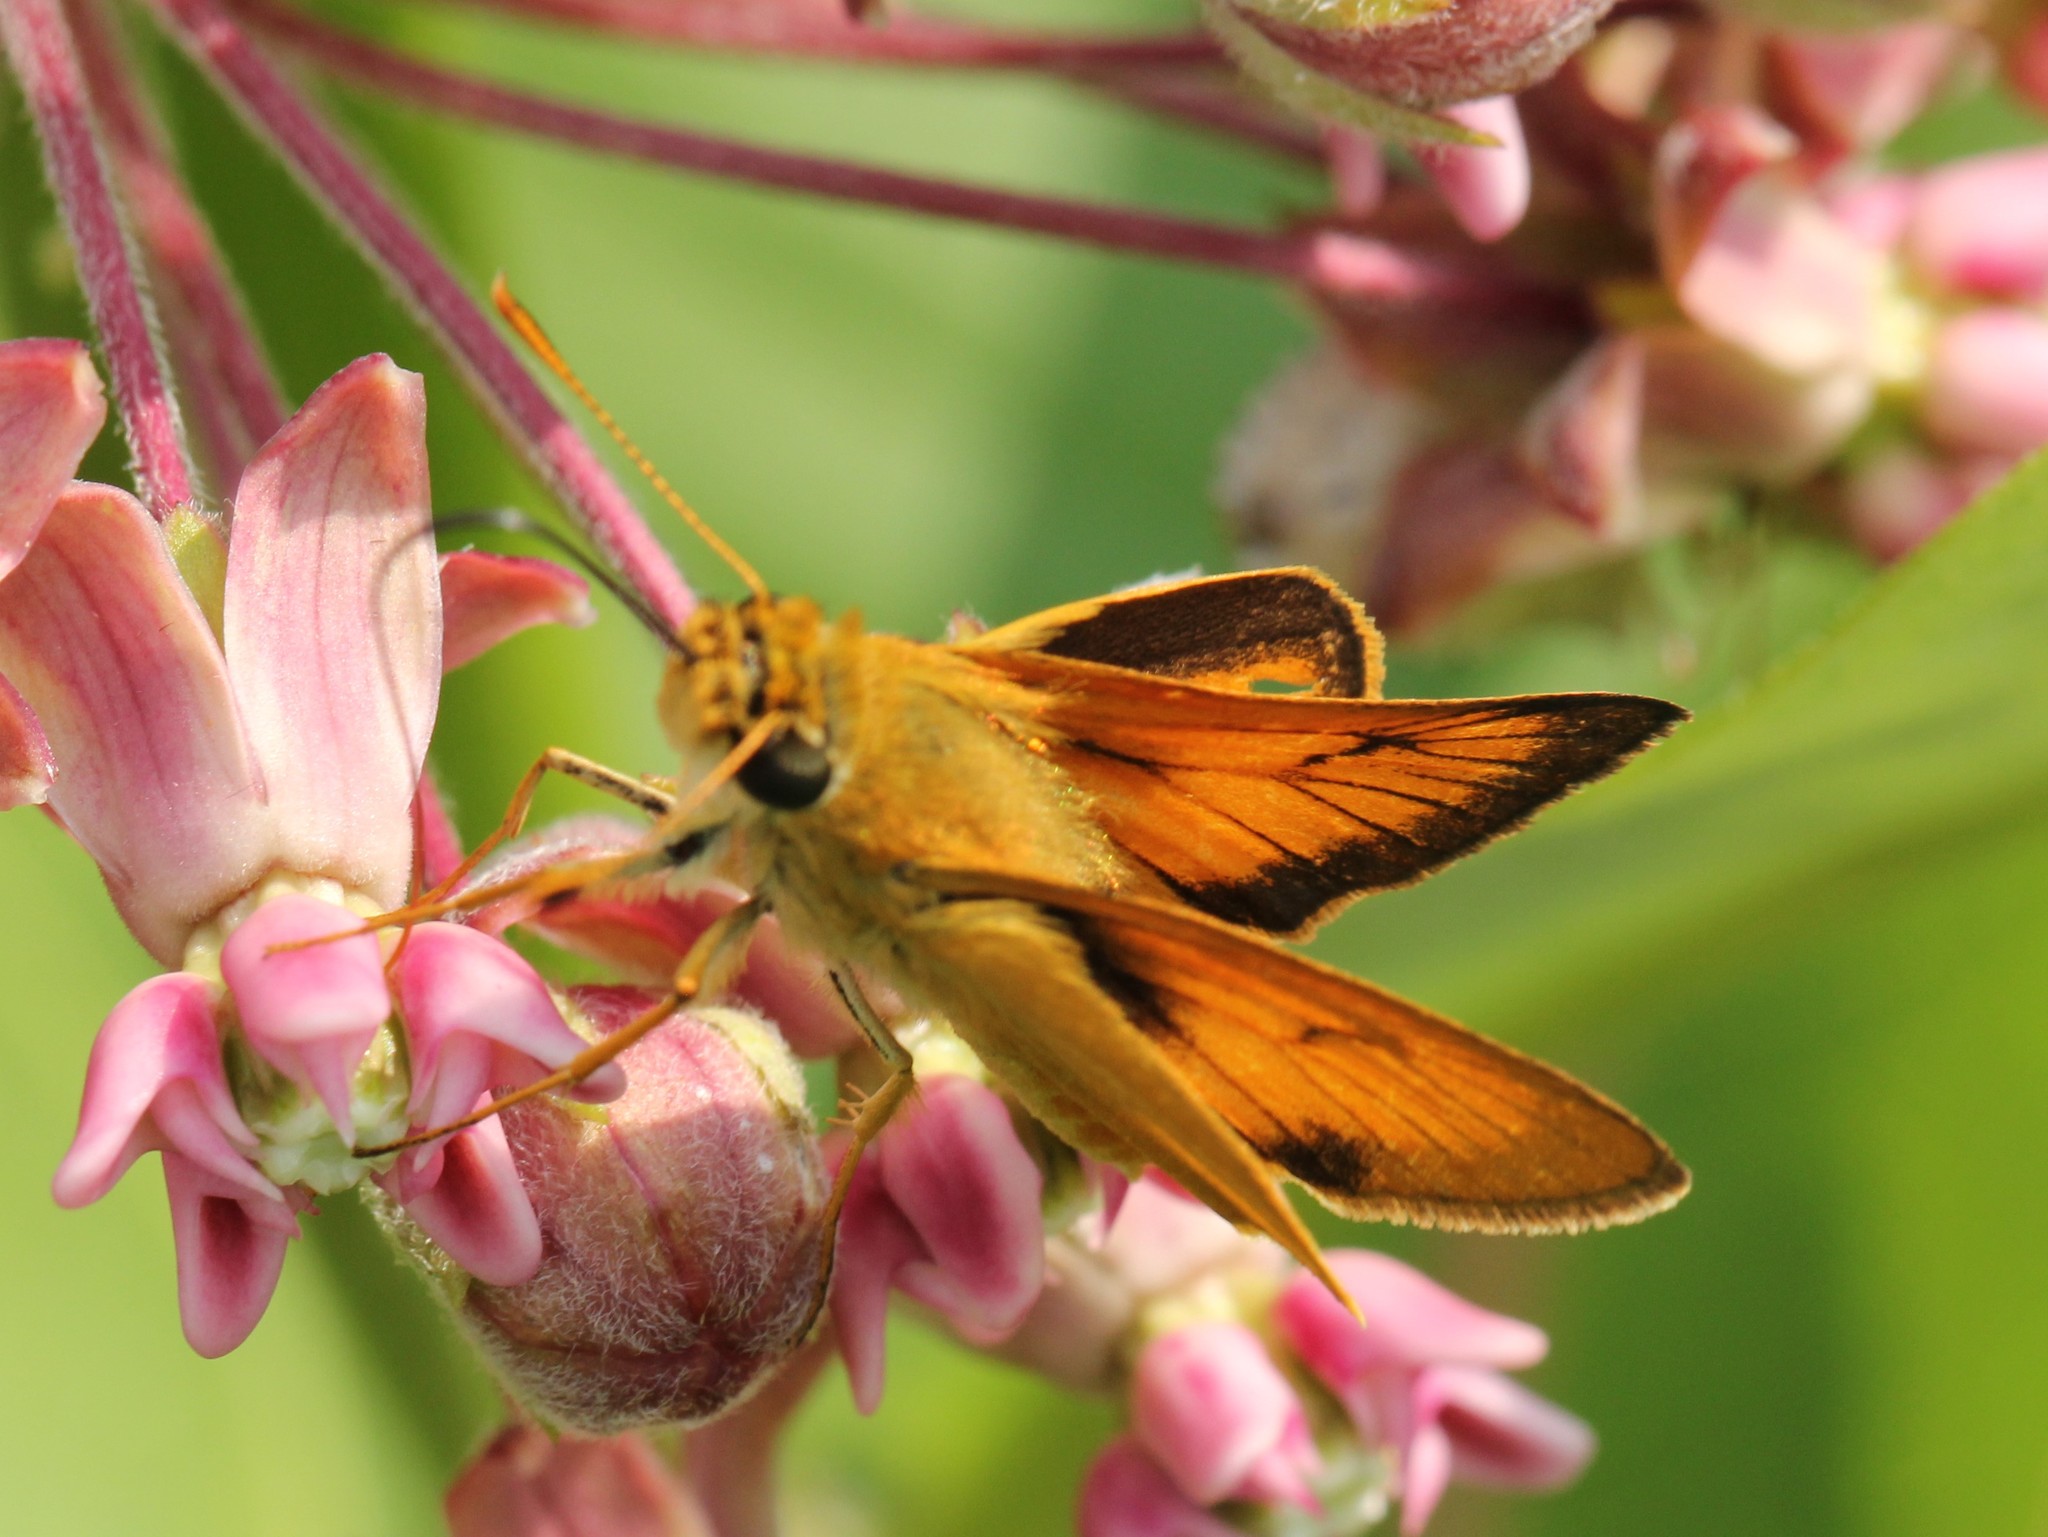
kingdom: Animalia
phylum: Arthropoda
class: Insecta
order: Lepidoptera
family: Hesperiidae
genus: Atrytone
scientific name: Atrytone delaware
